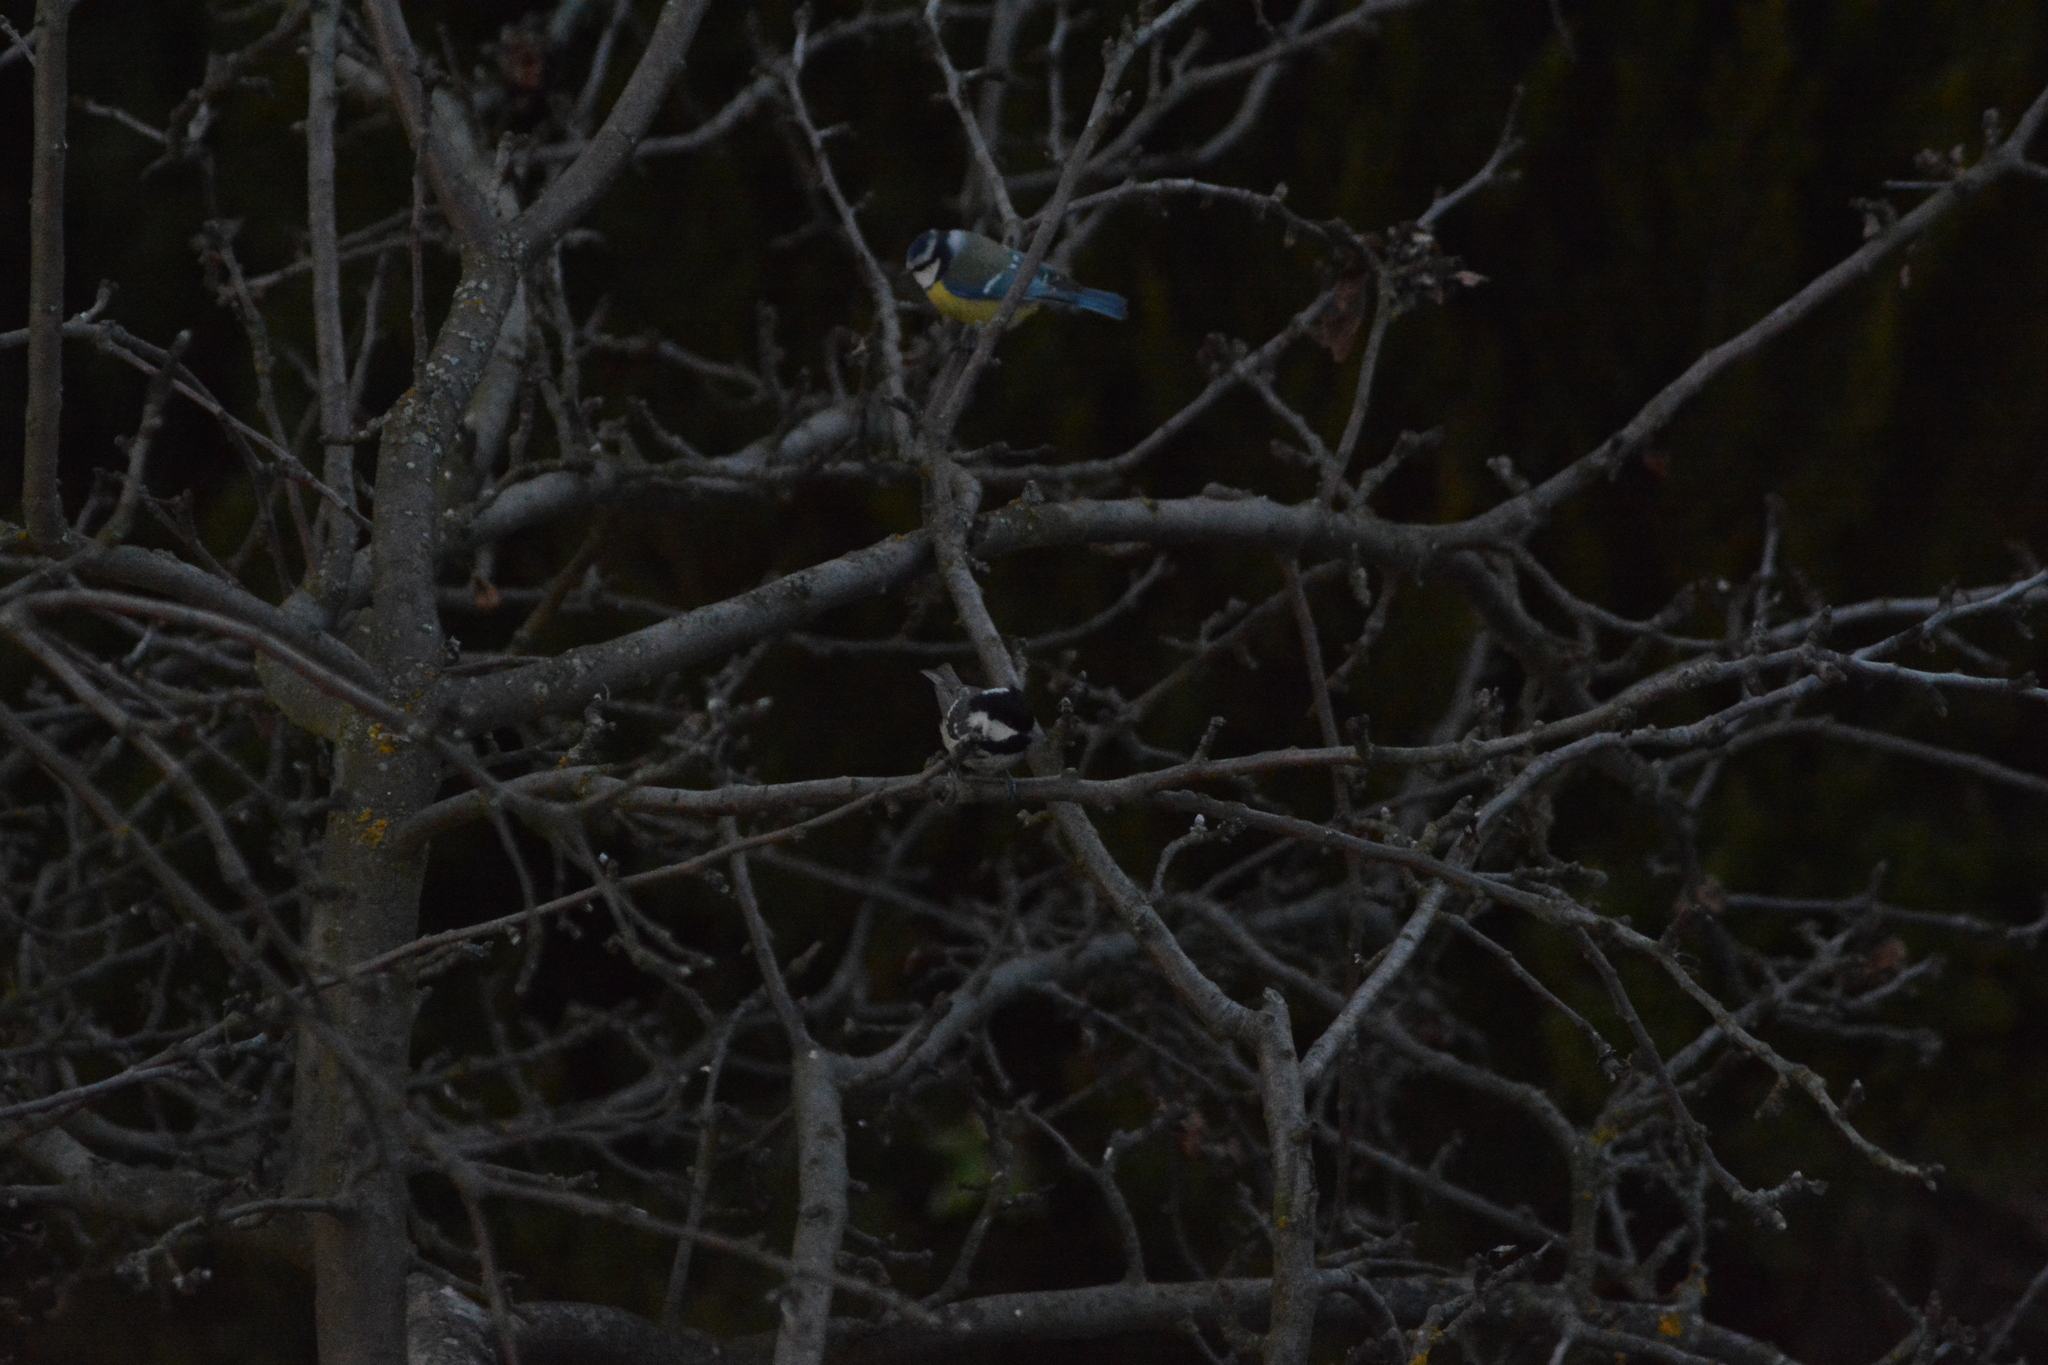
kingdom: Animalia
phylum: Chordata
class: Aves
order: Passeriformes
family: Paridae
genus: Periparus
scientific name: Periparus ater
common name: Coal tit
